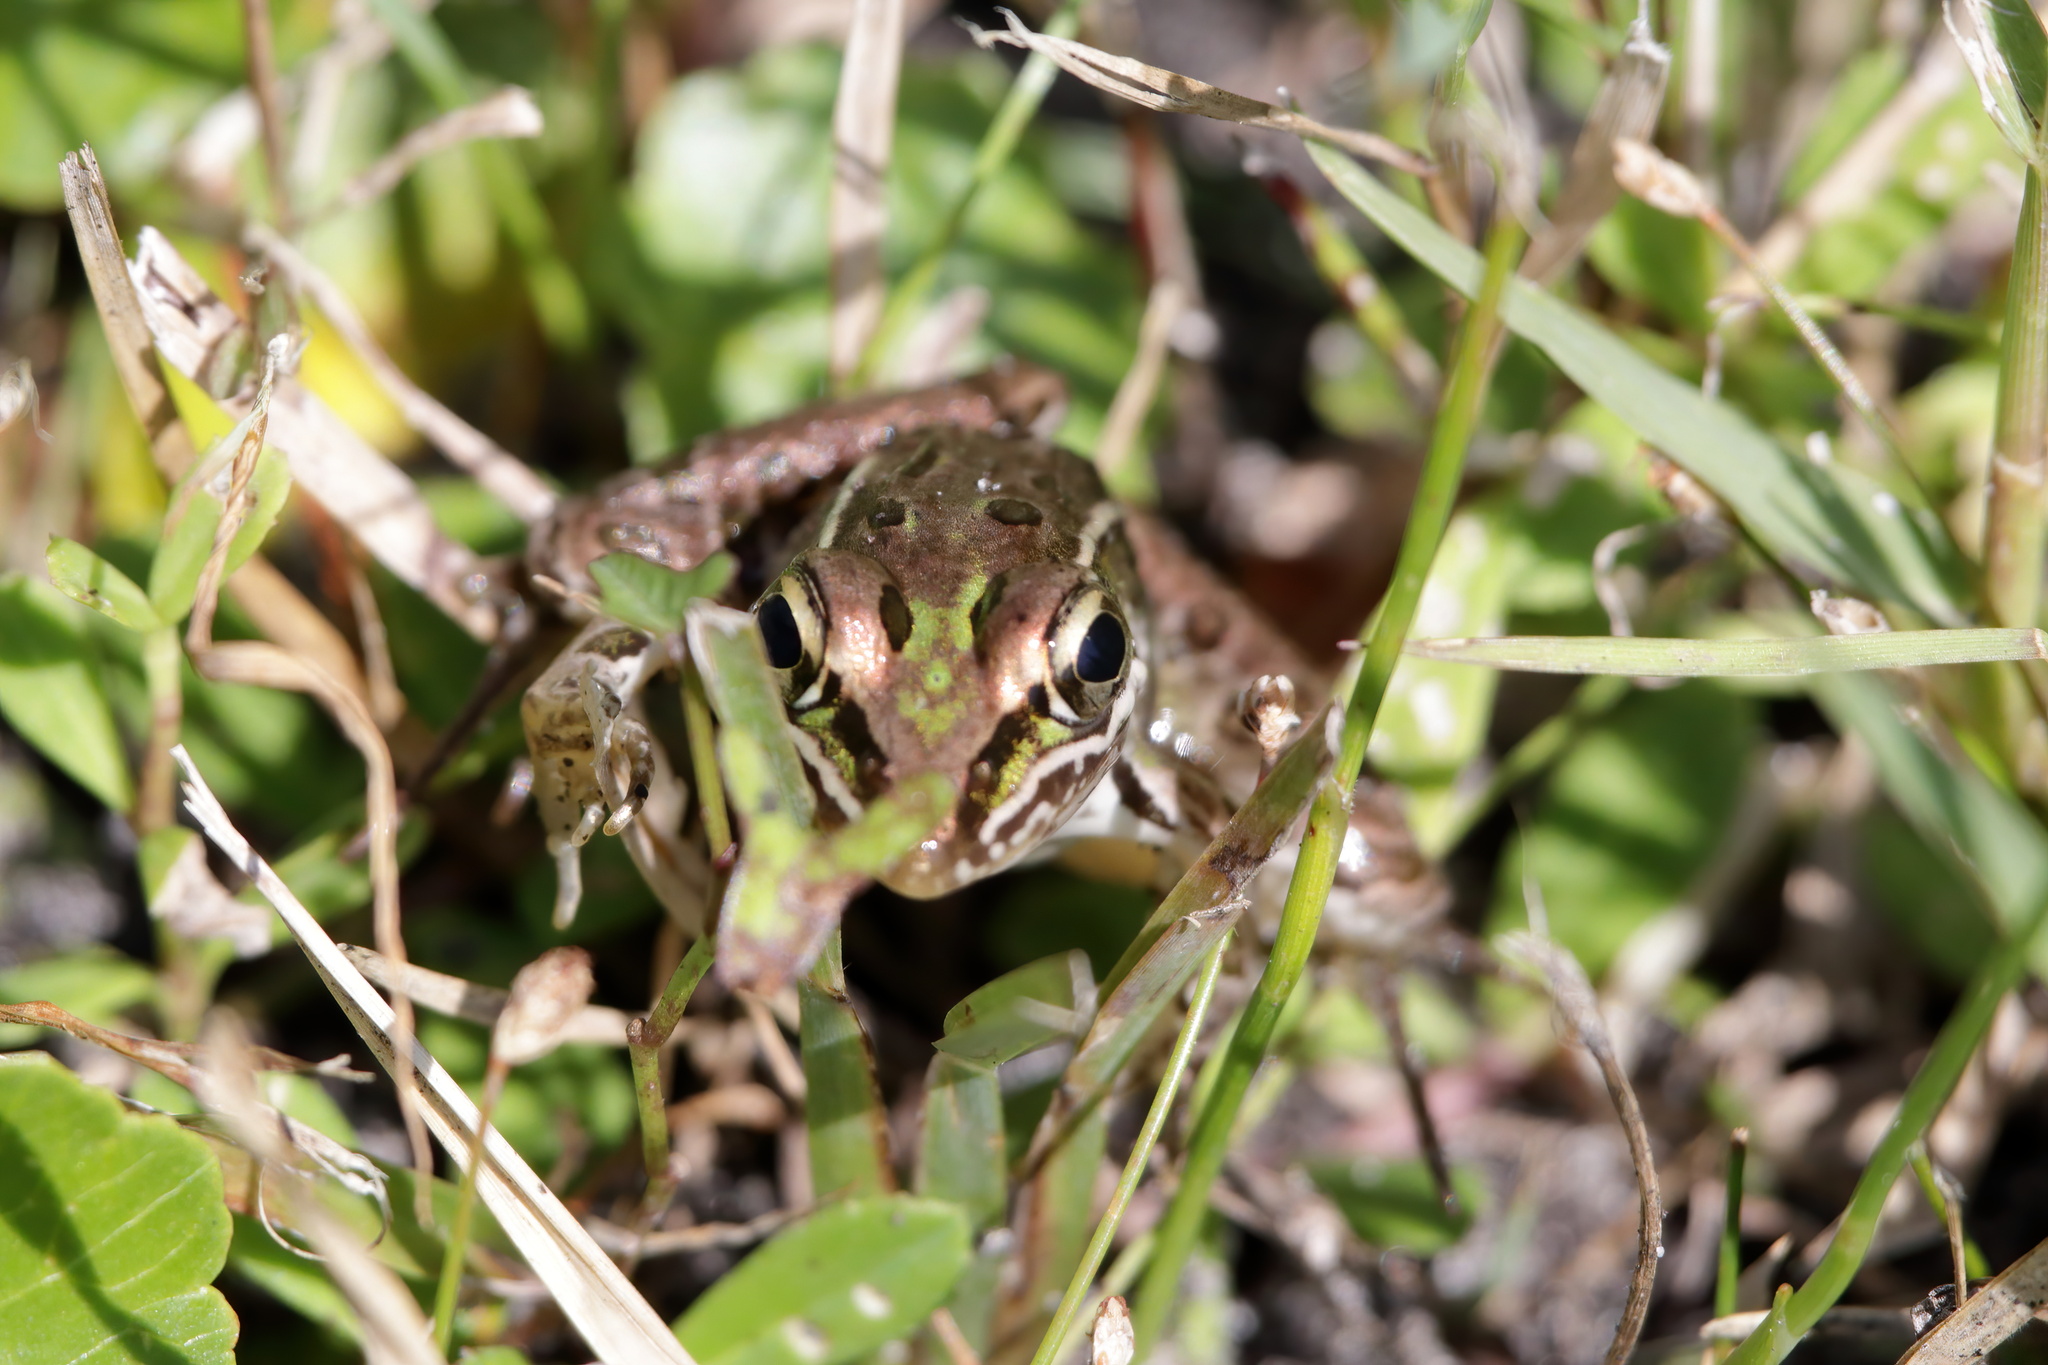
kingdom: Animalia
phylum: Chordata
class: Amphibia
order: Anura
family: Ranidae
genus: Lithobates
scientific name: Lithobates sphenocephalus
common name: Southern leopard frog
